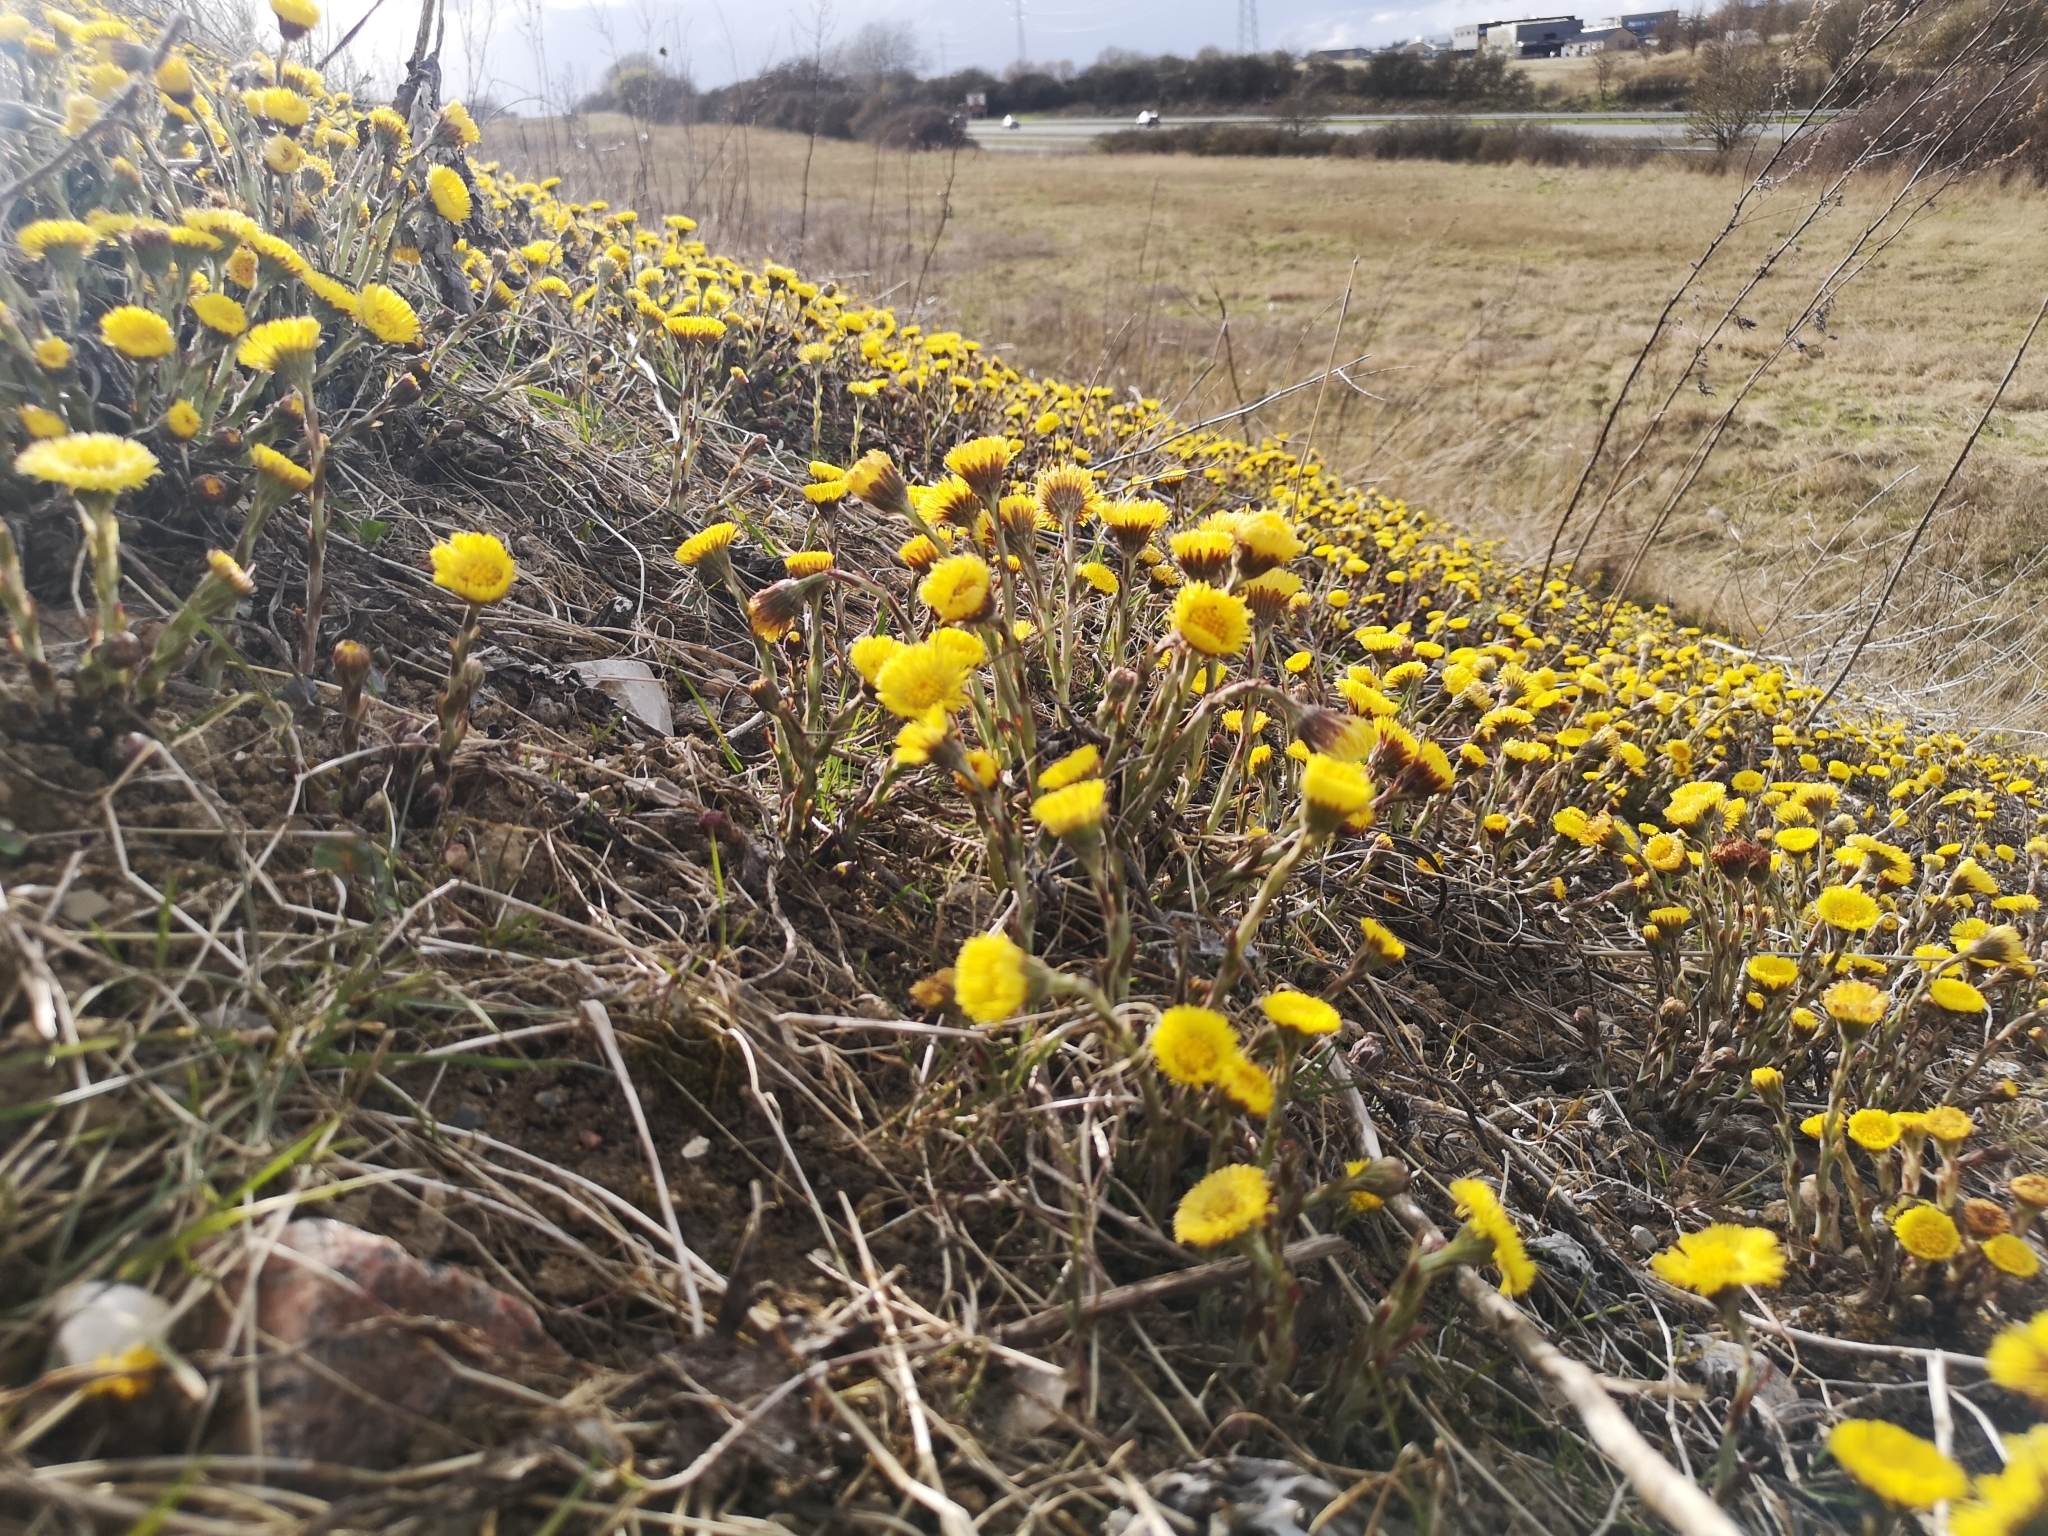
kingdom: Plantae
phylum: Tracheophyta
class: Magnoliopsida
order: Asterales
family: Asteraceae
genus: Tussilago
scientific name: Tussilago farfara
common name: Coltsfoot
